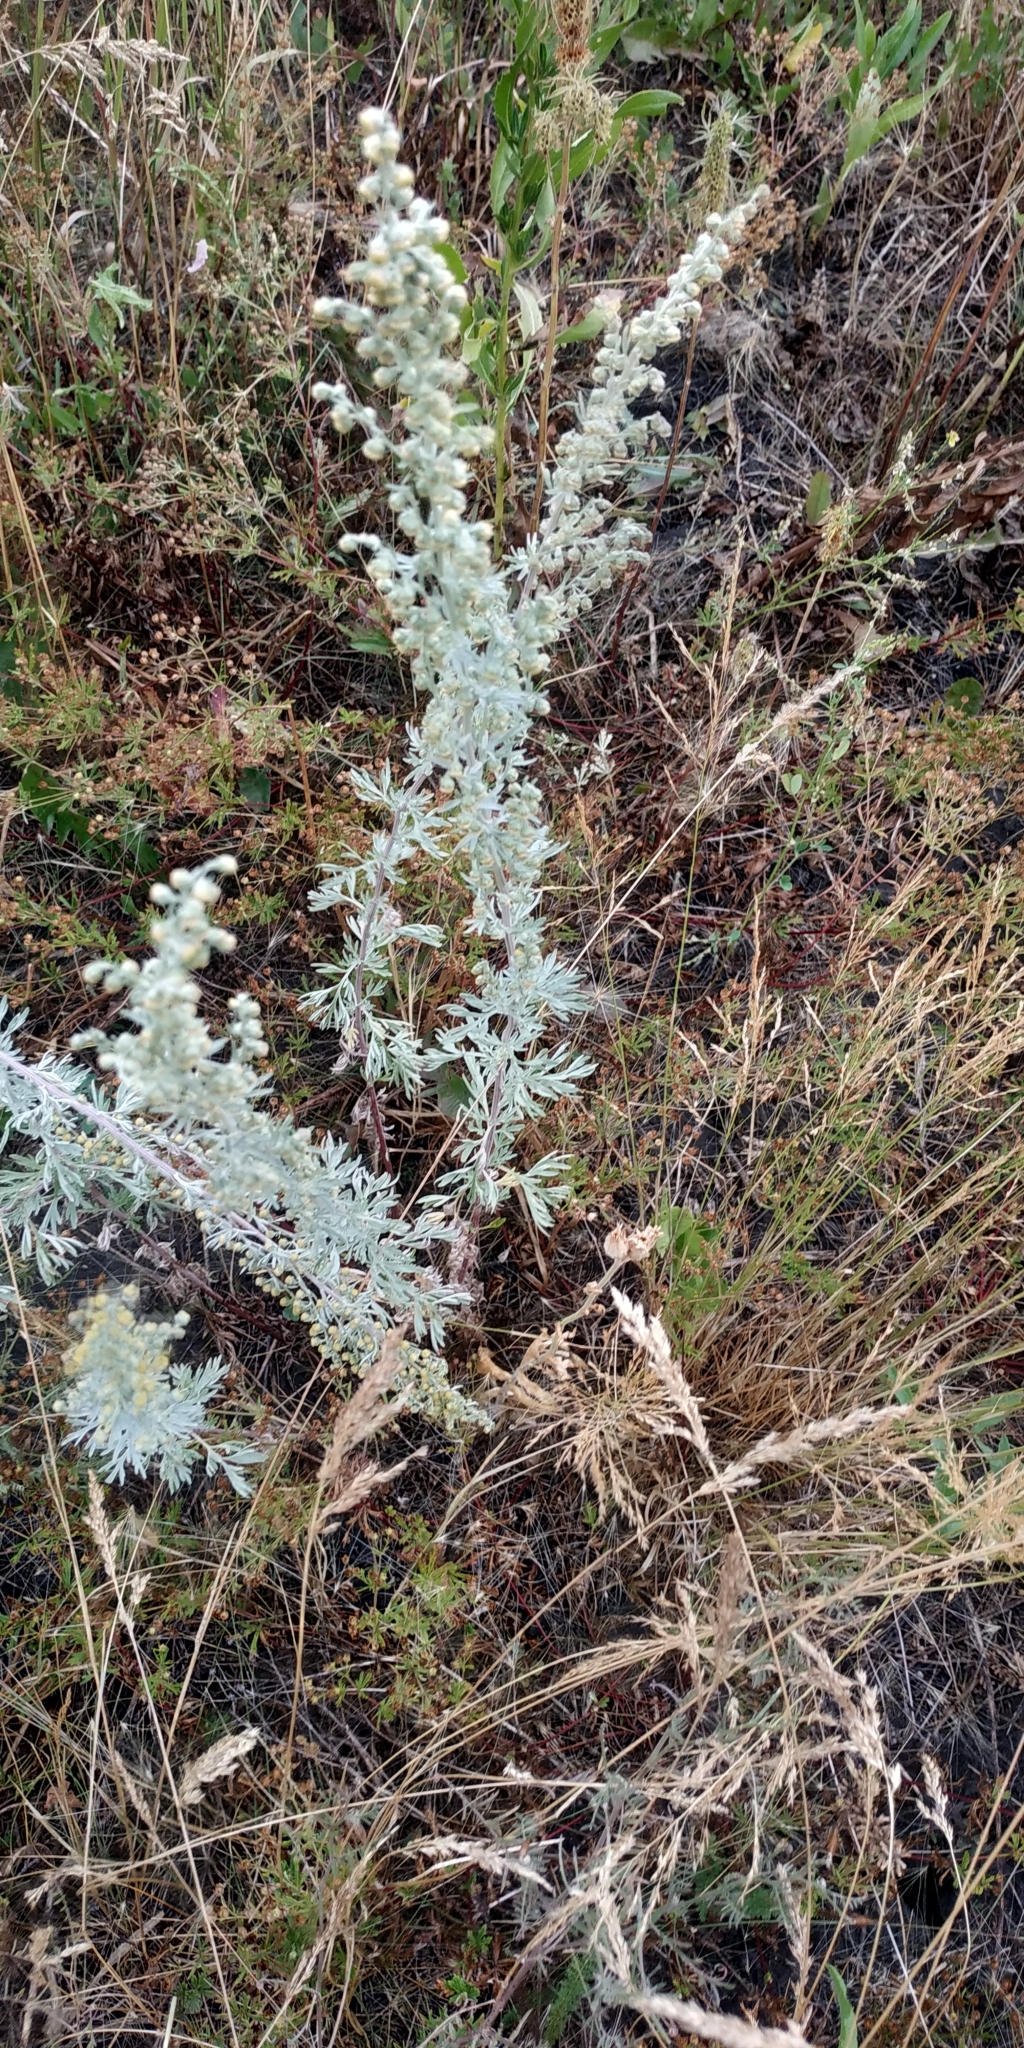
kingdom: Plantae
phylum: Tracheophyta
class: Magnoliopsida
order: Asterales
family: Asteraceae
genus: Artemisia
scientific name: Artemisia absinthium
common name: Wormwood
